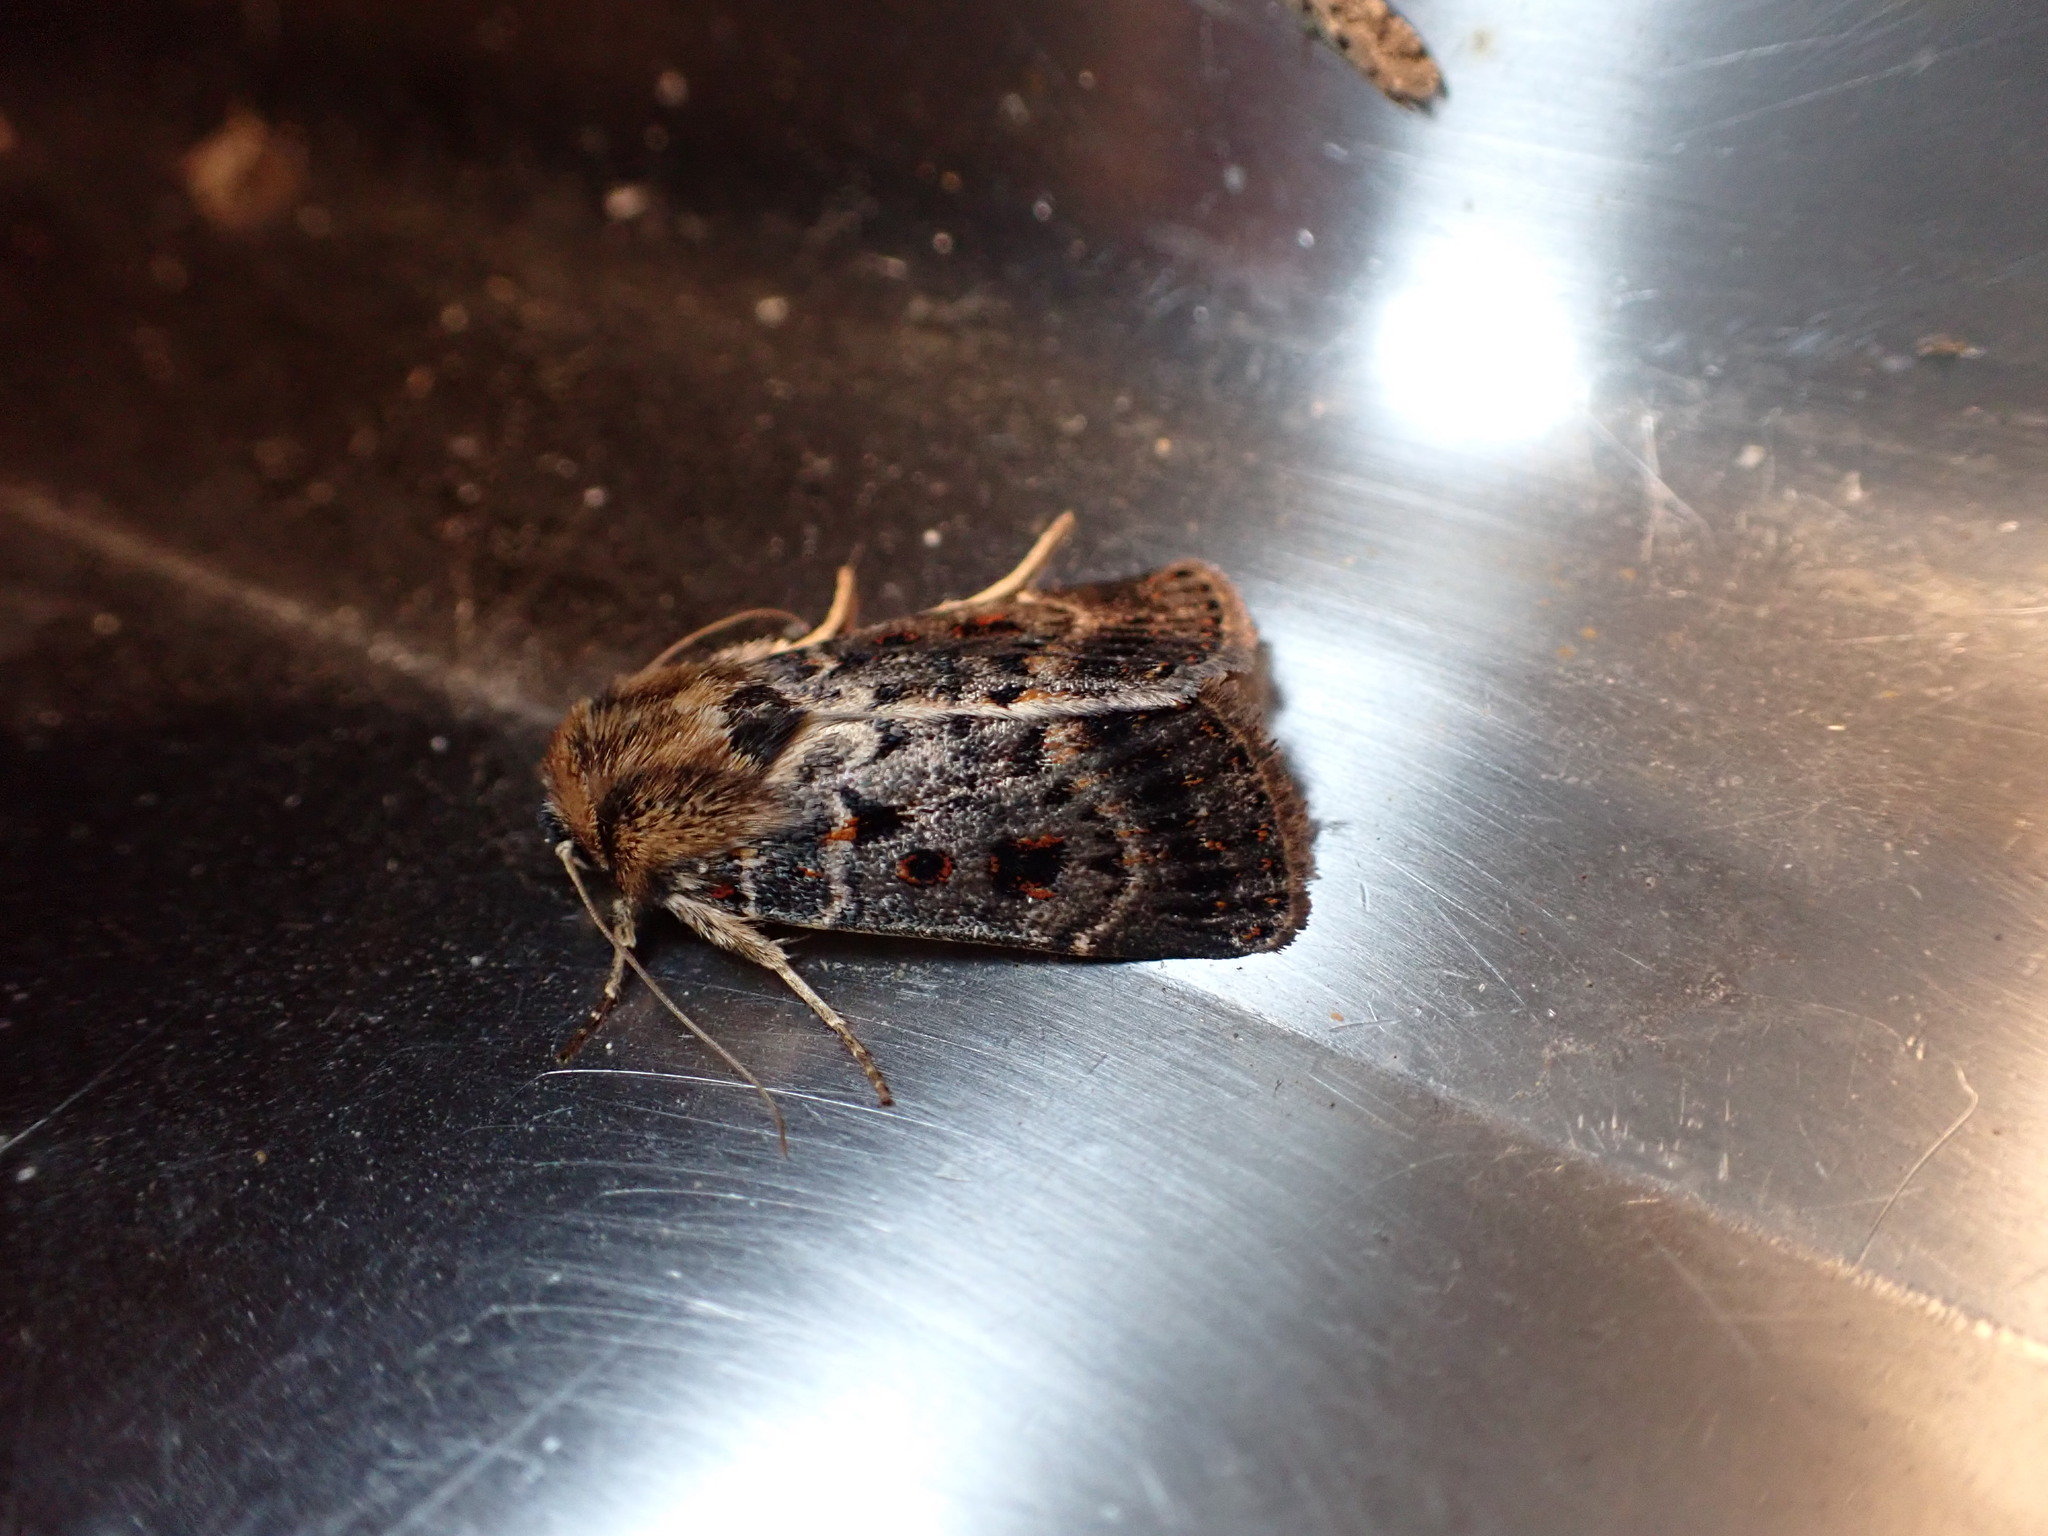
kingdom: Animalia
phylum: Arthropoda
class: Insecta
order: Lepidoptera
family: Noctuidae
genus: Proteuxoa
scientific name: Proteuxoa sanguinipuncta
